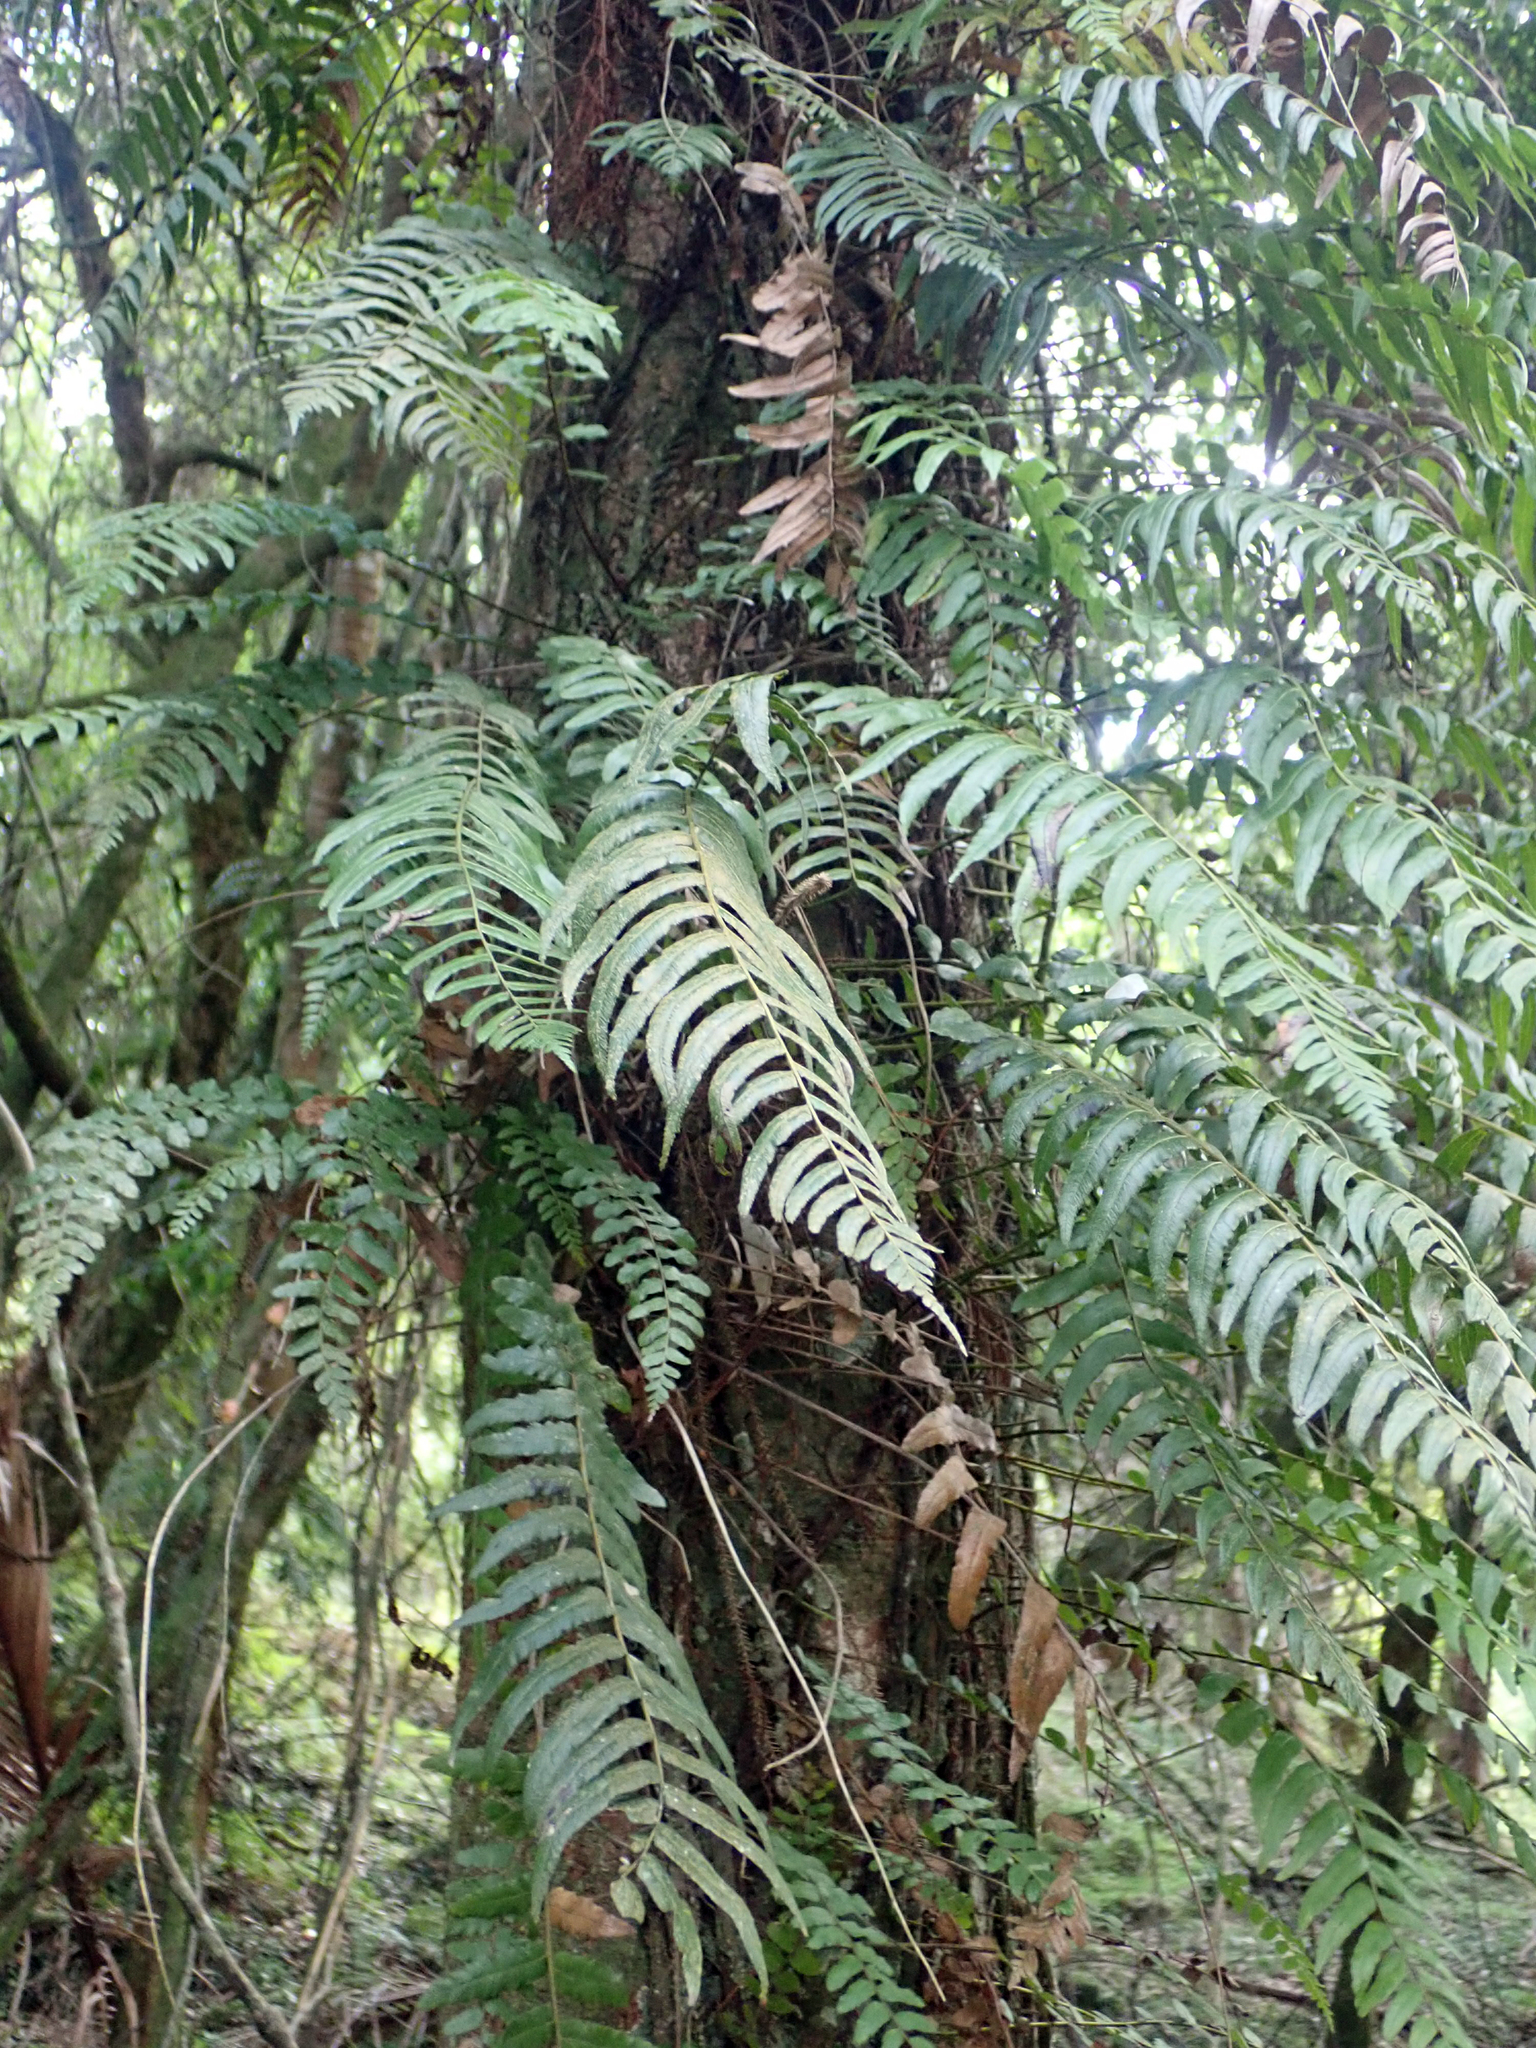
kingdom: Plantae
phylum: Tracheophyta
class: Polypodiopsida
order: Polypodiales
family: Blechnaceae
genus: Icarus
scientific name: Icarus filiformis
